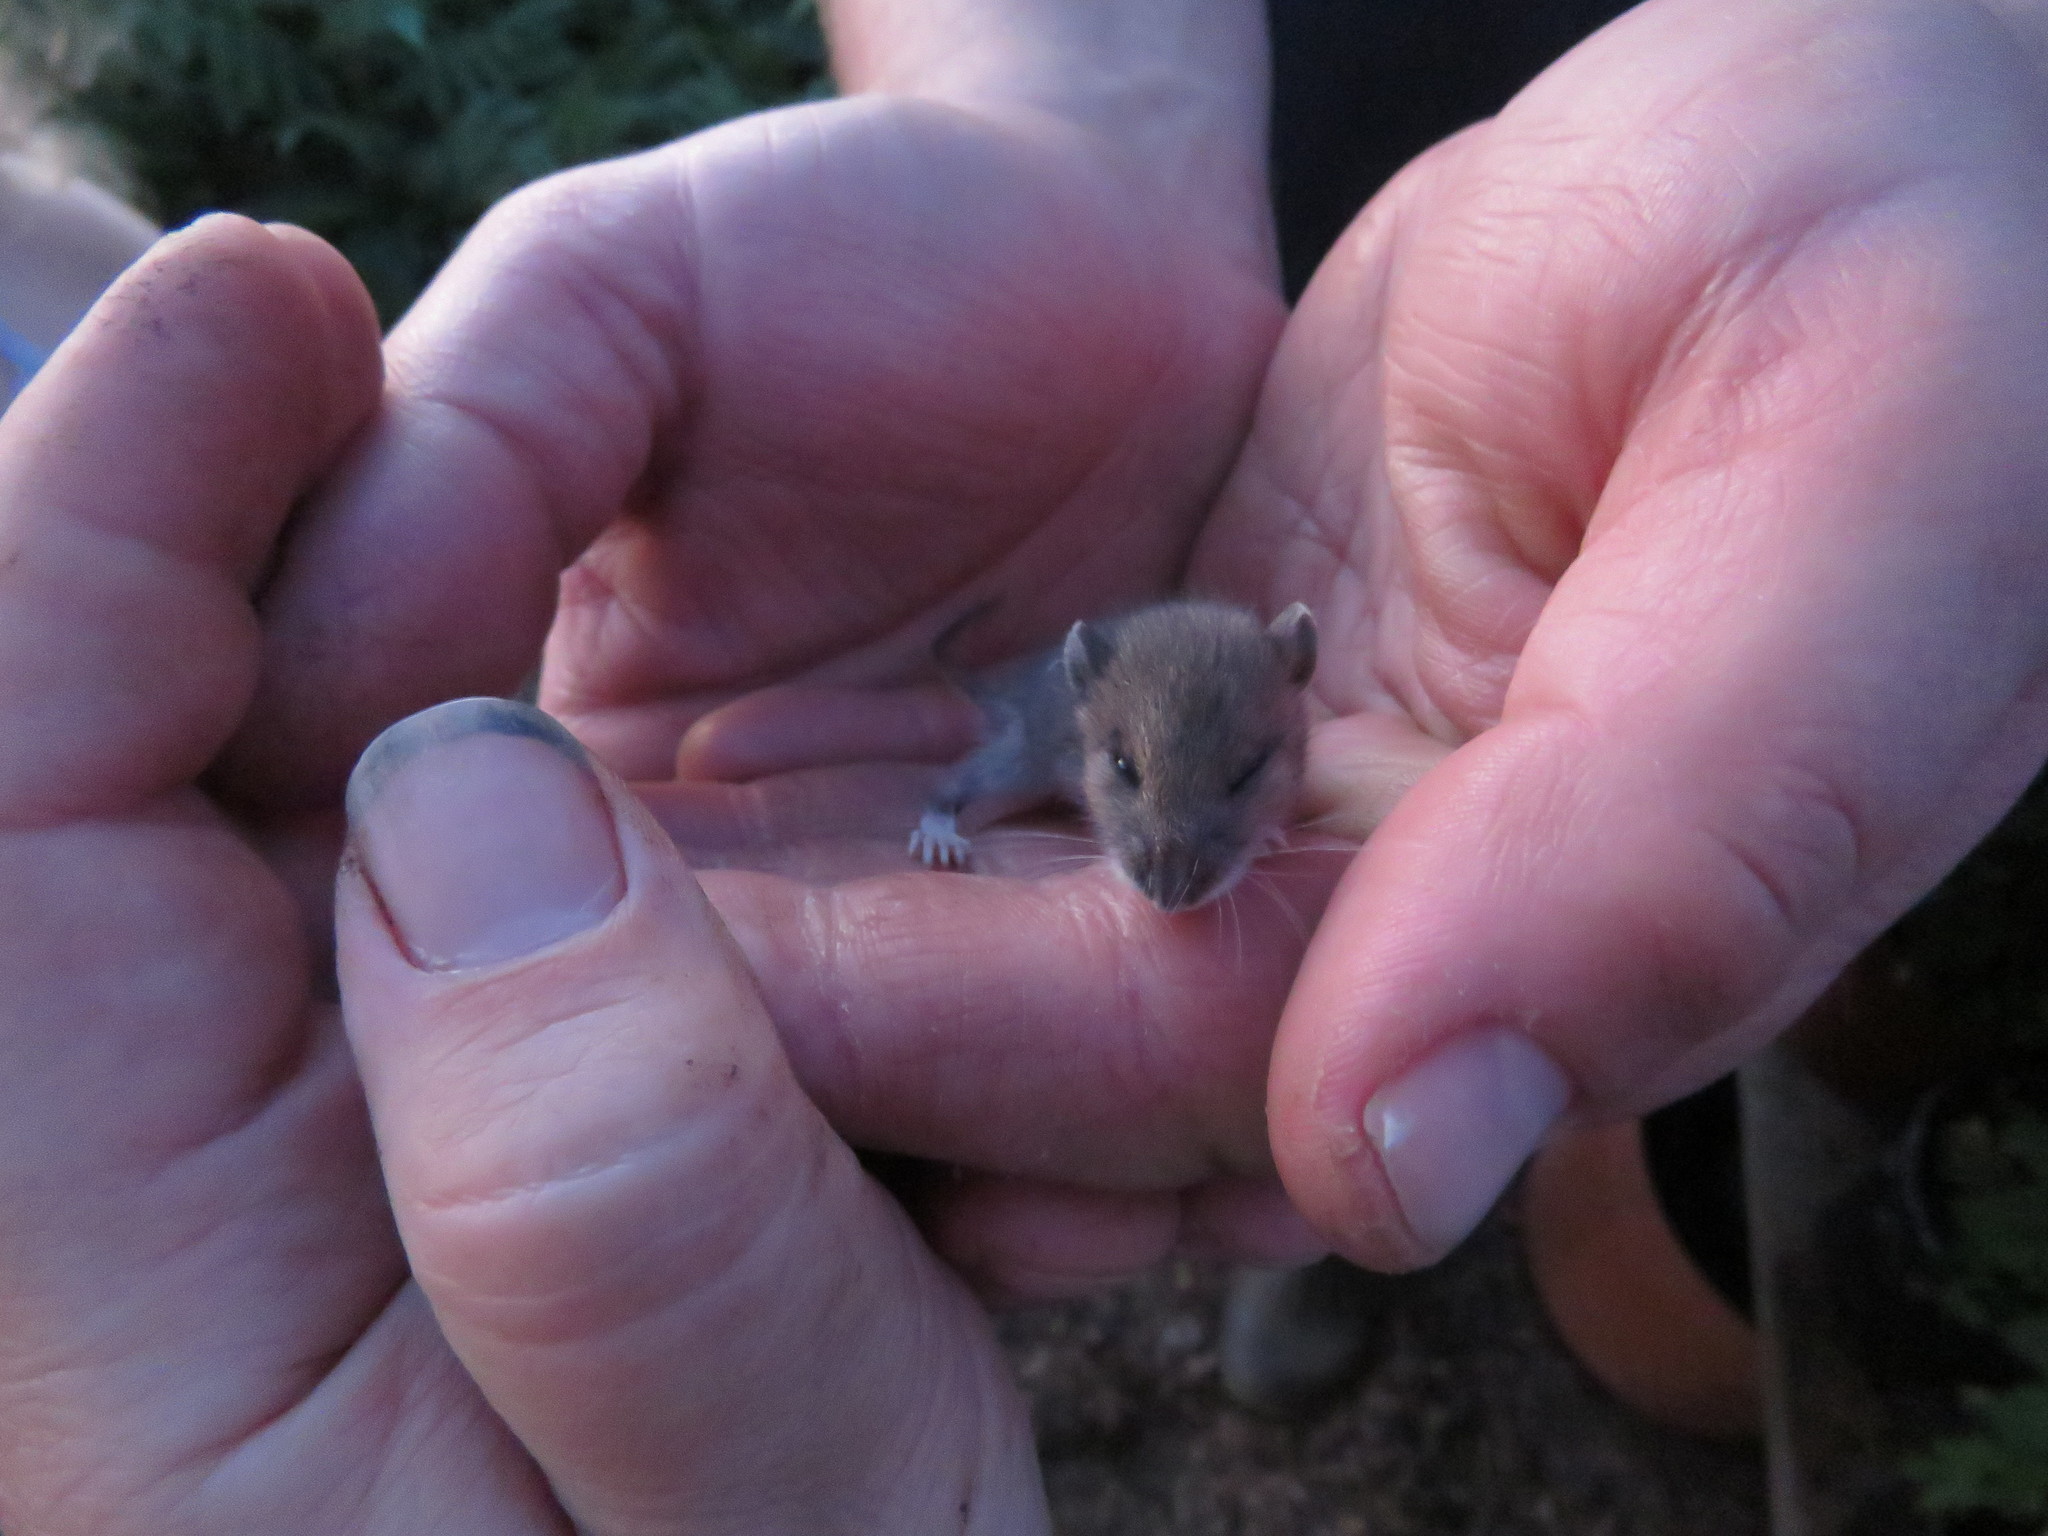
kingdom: Animalia
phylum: Chordata
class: Mammalia
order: Rodentia
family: Cricetidae
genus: Peromyscus
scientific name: Peromyscus
